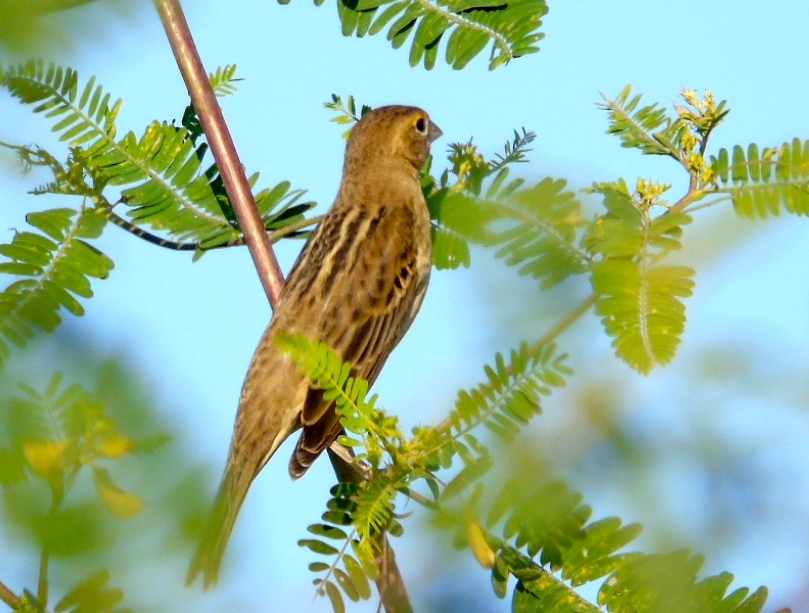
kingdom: Animalia
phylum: Chordata
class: Aves
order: Passeriformes
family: Cardinalidae
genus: Spiza
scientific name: Spiza americana
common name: Dickcissel
